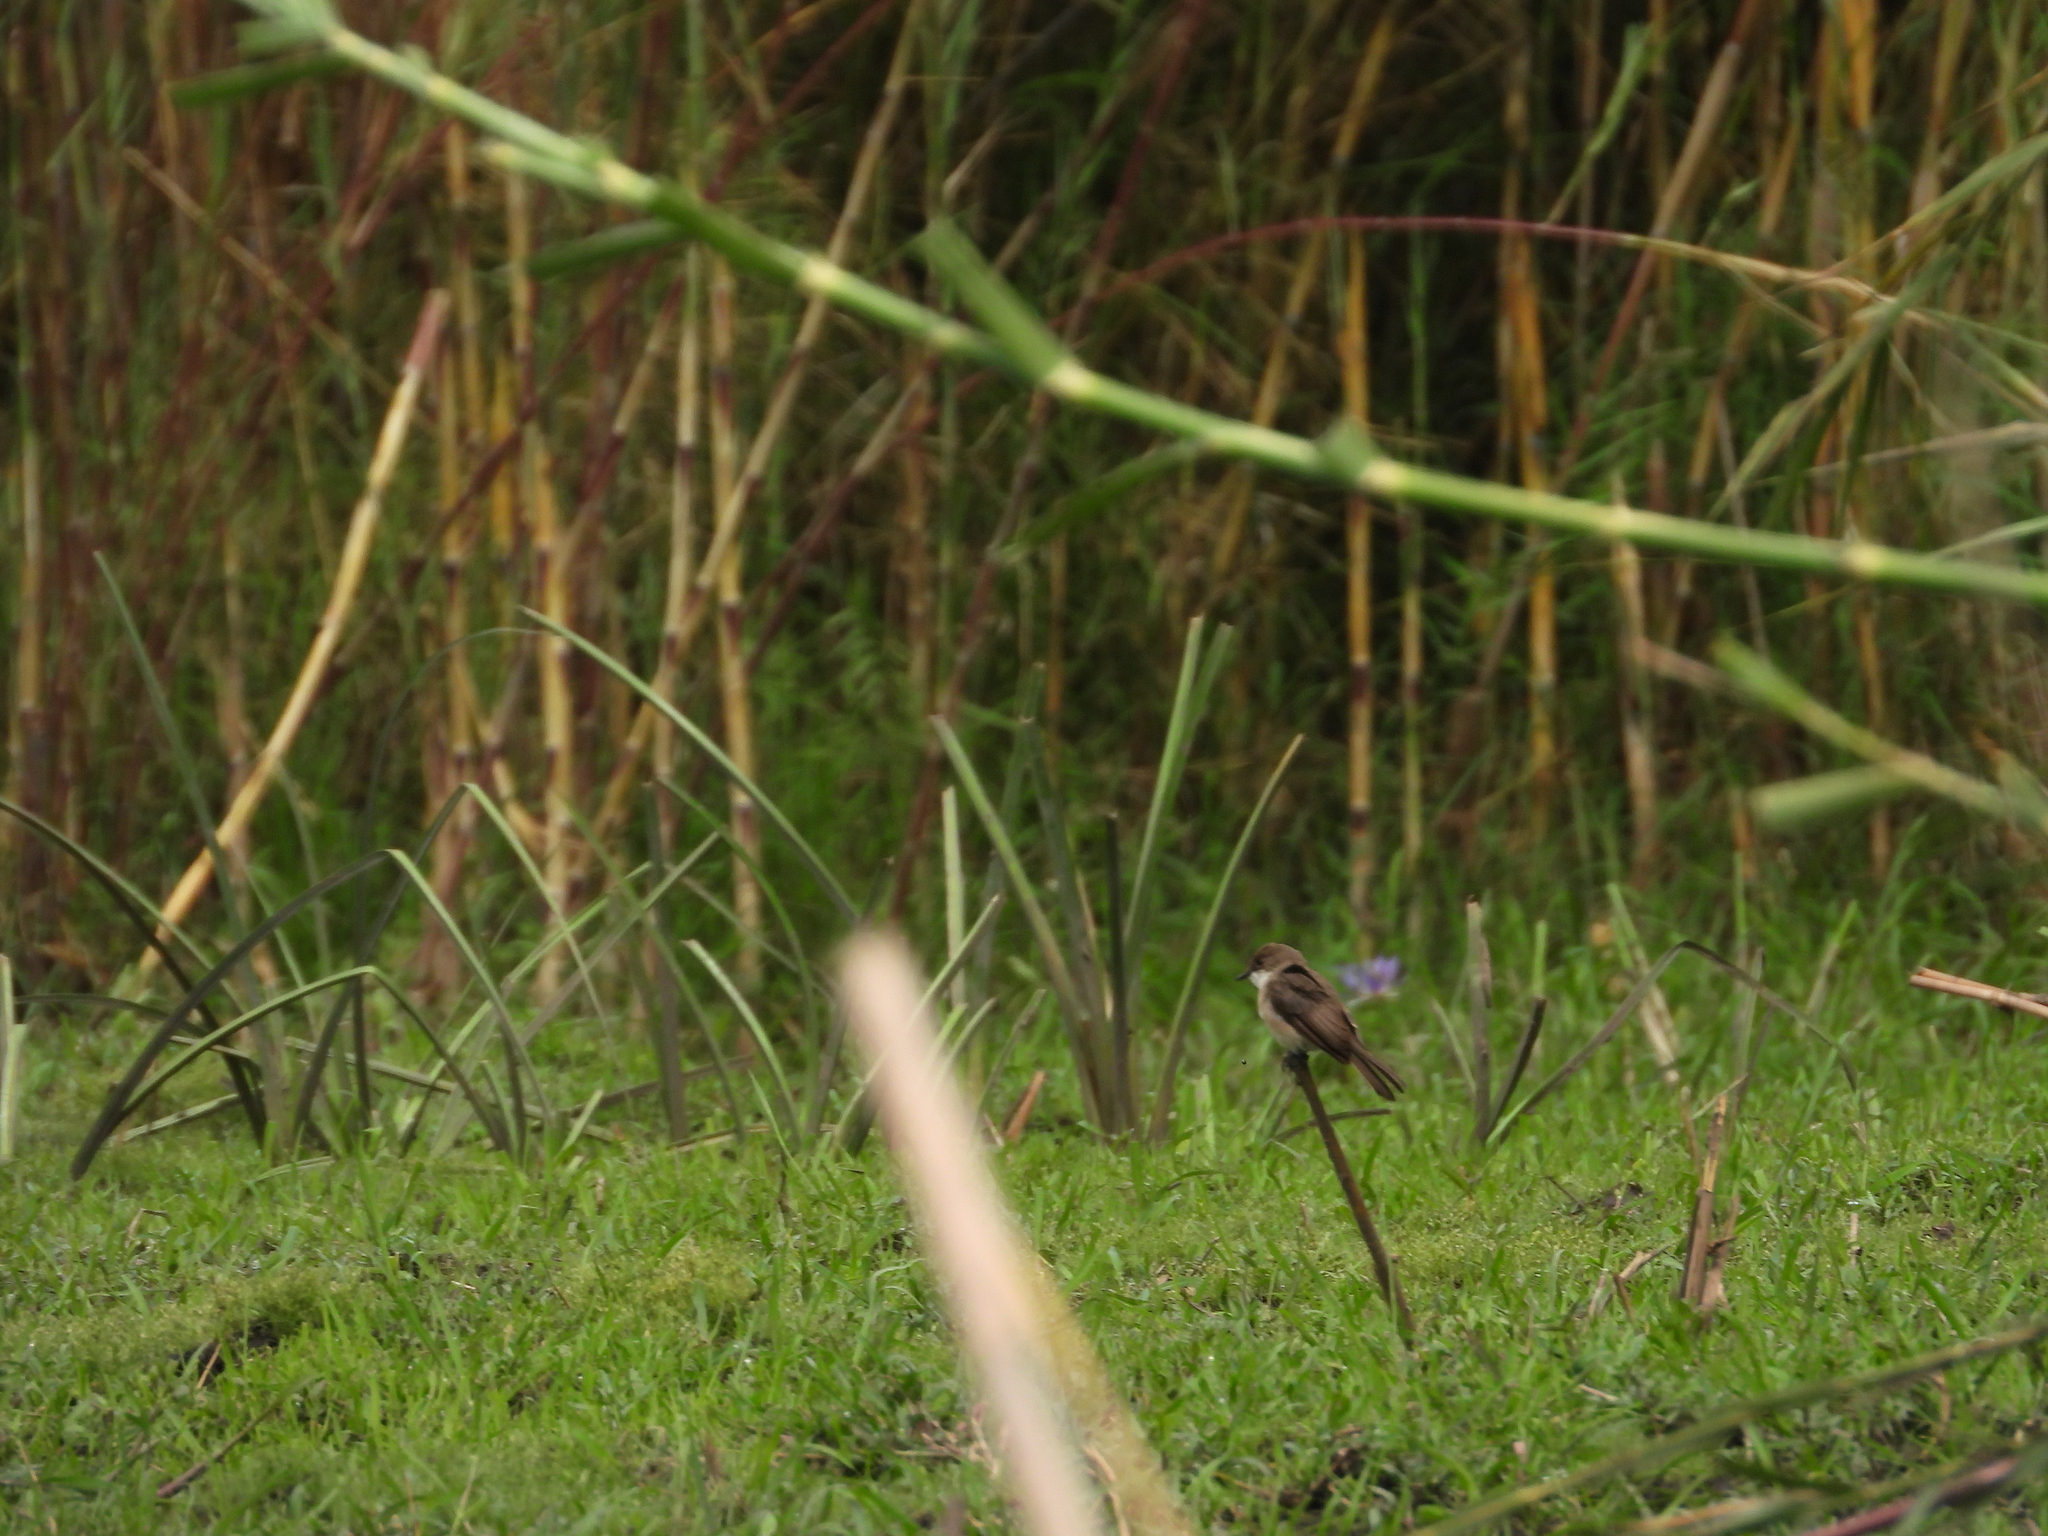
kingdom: Animalia
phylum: Chordata
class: Aves
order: Passeriformes
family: Muscicapidae
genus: Muscicapa
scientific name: Muscicapa aquatica
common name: Swamp flycatcher
